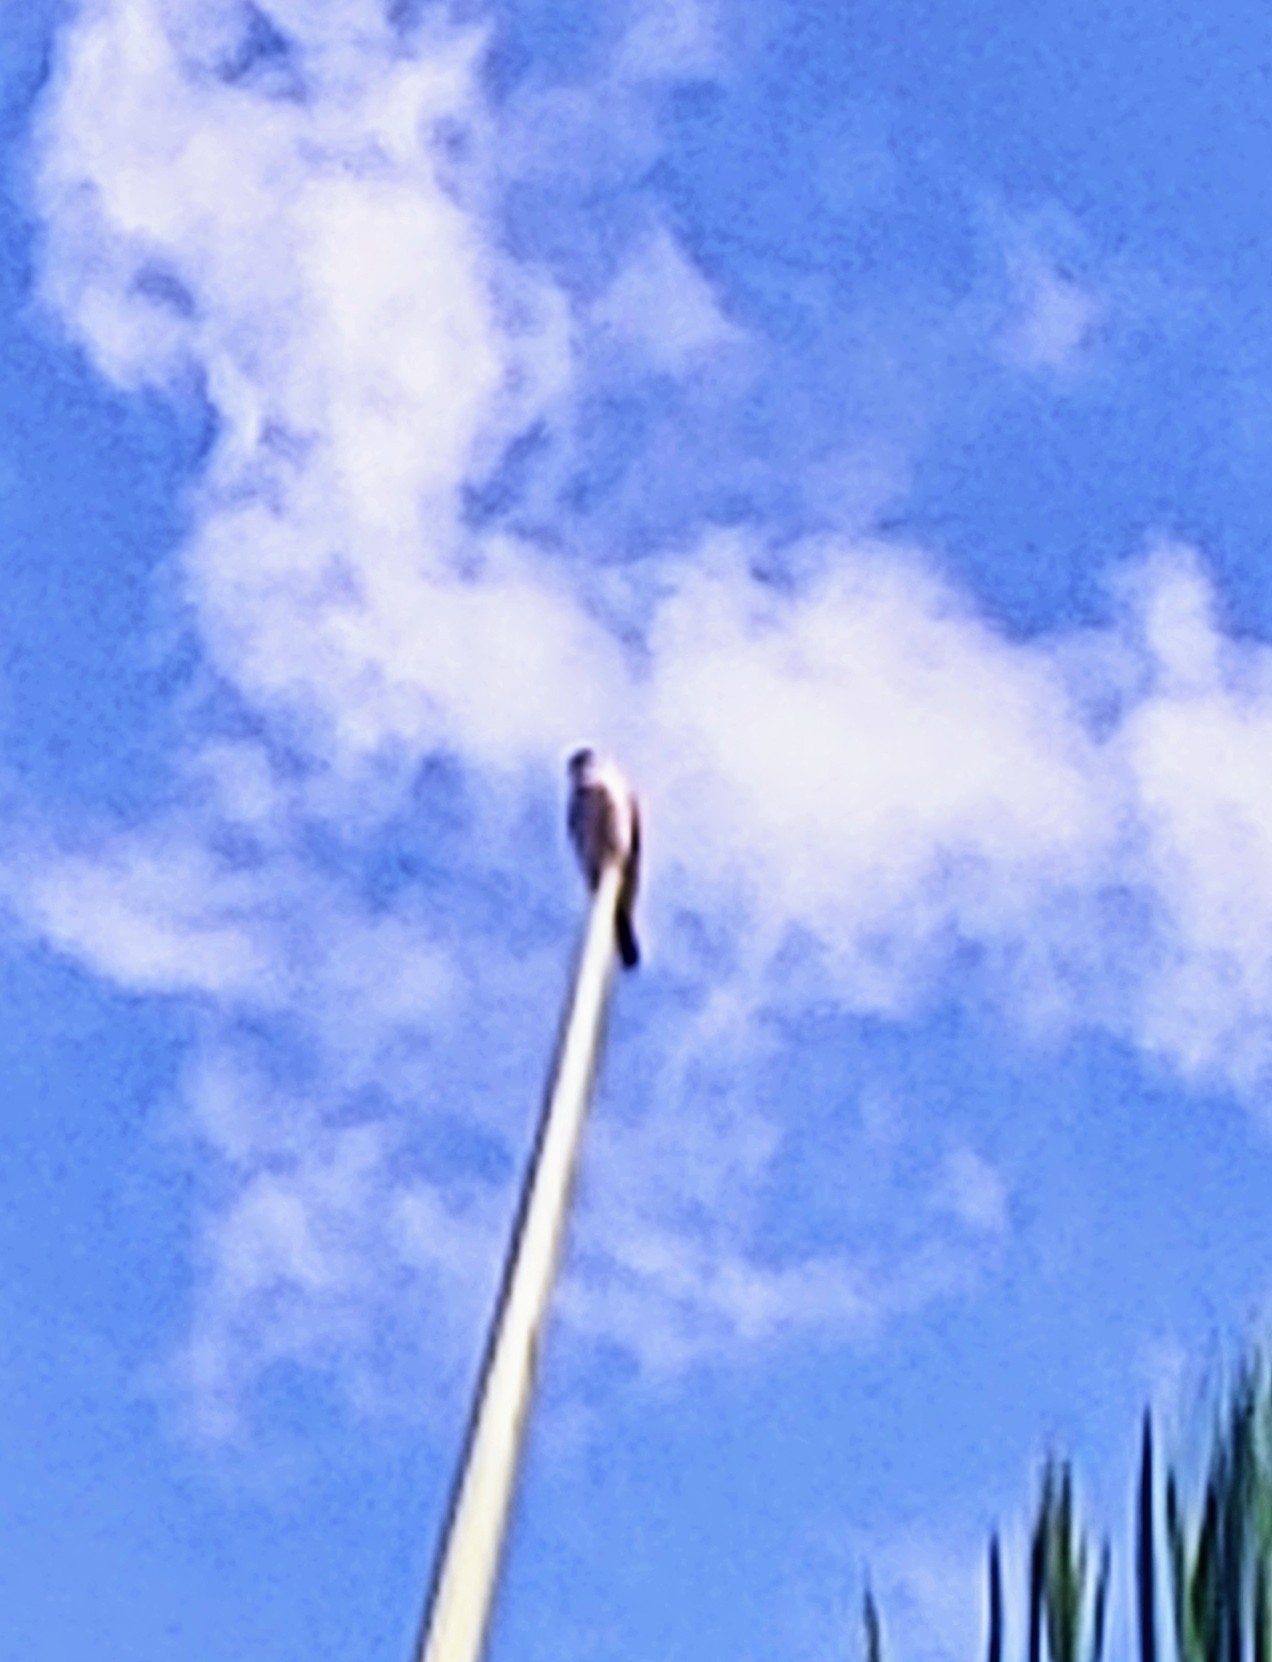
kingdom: Animalia
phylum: Chordata
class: Aves
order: Falconiformes
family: Falconidae
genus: Falco
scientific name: Falco sparverius
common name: American kestrel
